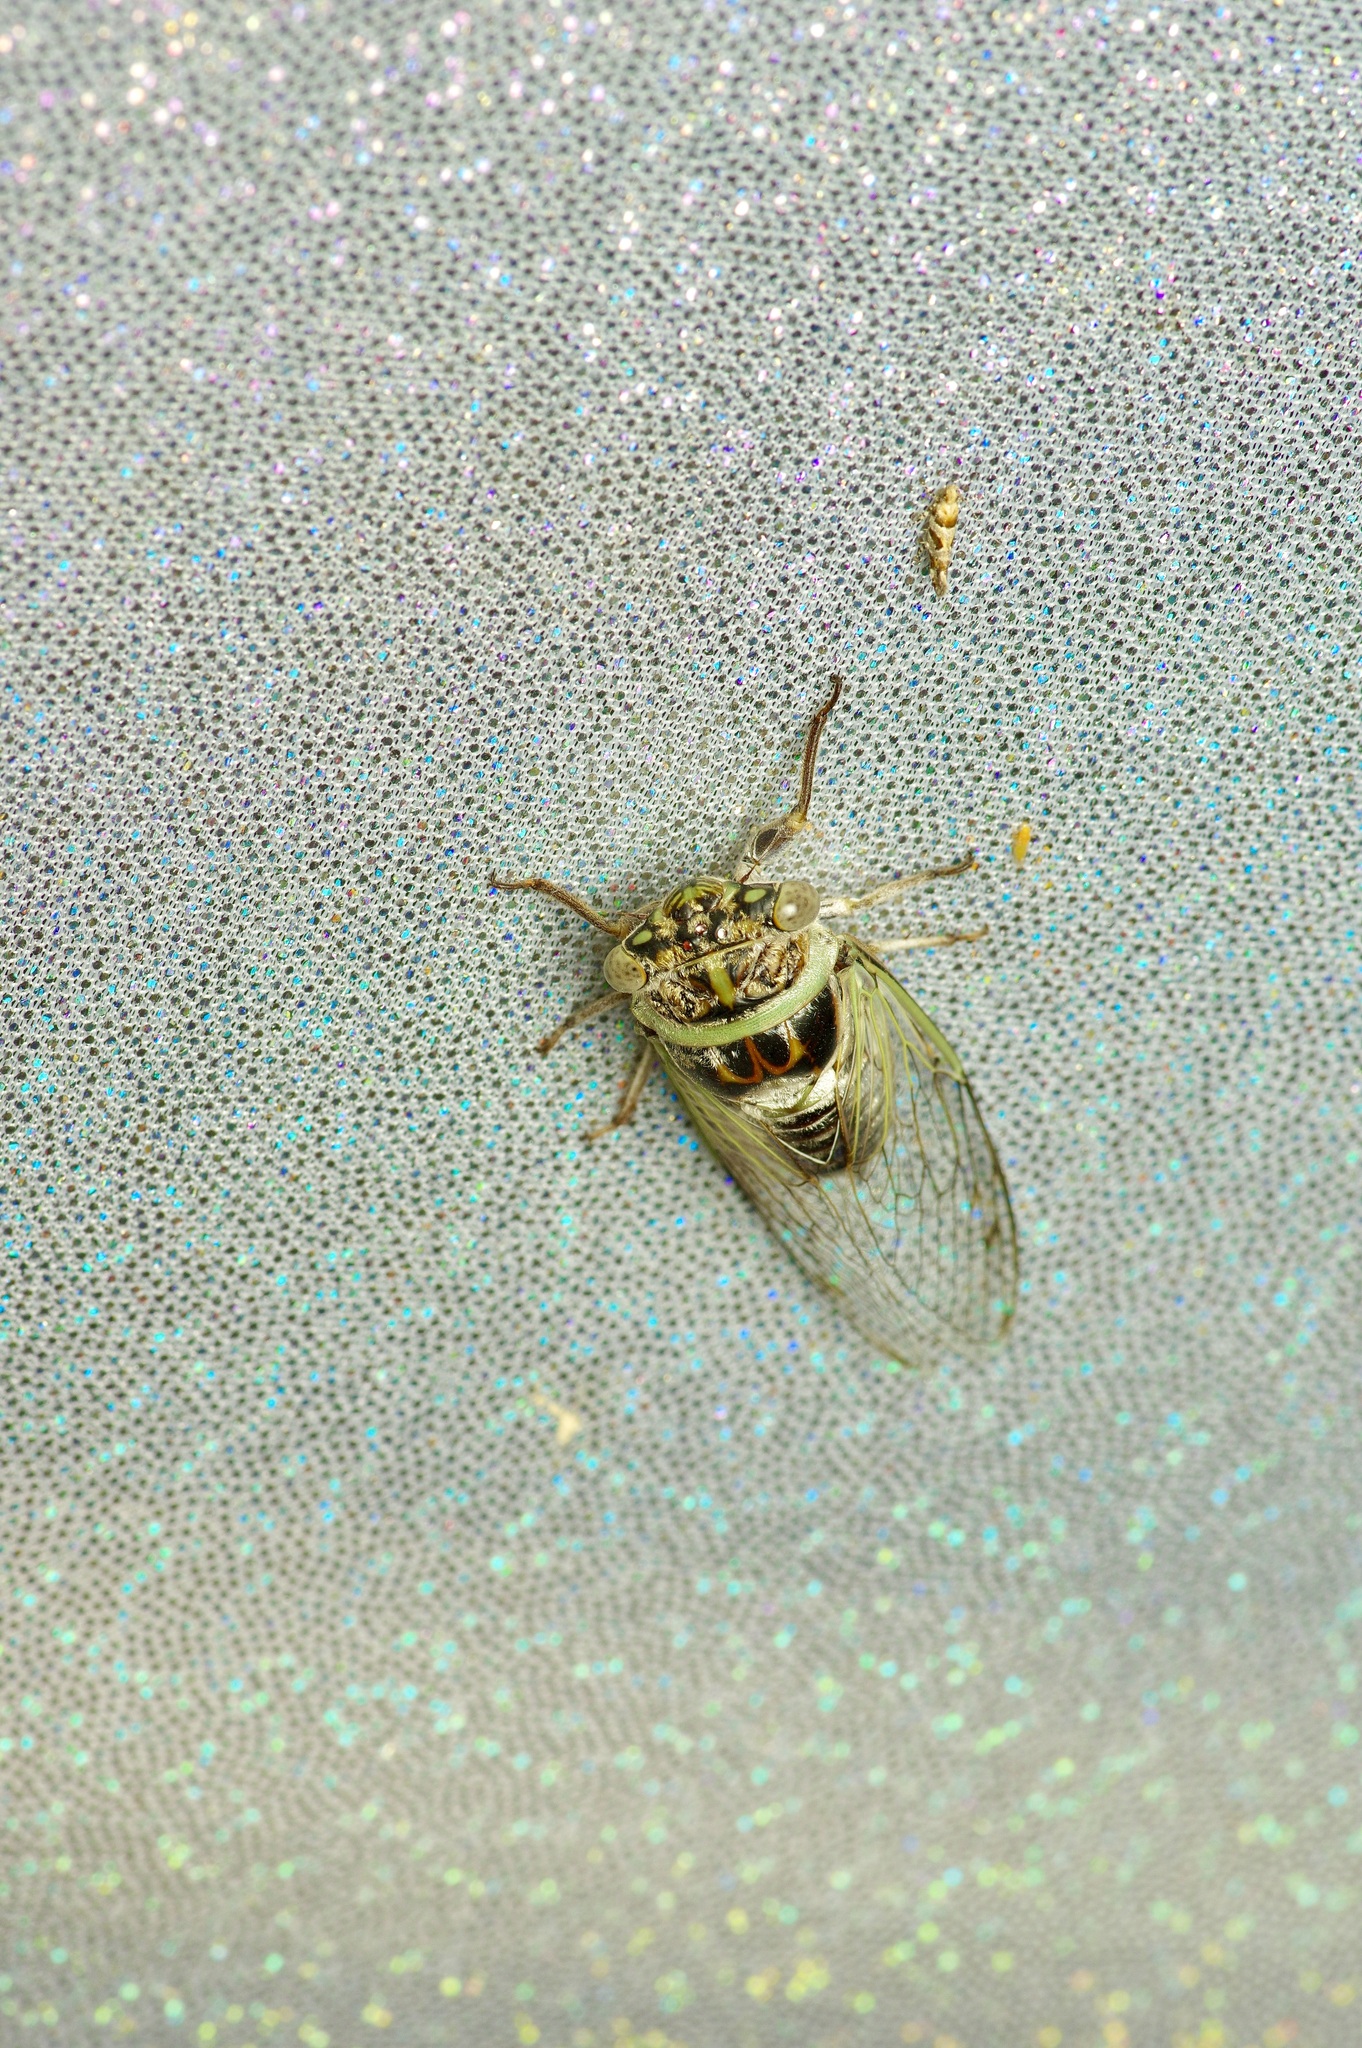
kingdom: Animalia
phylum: Arthropoda
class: Insecta
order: Hemiptera
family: Cicadidae
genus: Diceroprocta
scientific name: Diceroprocta texana
